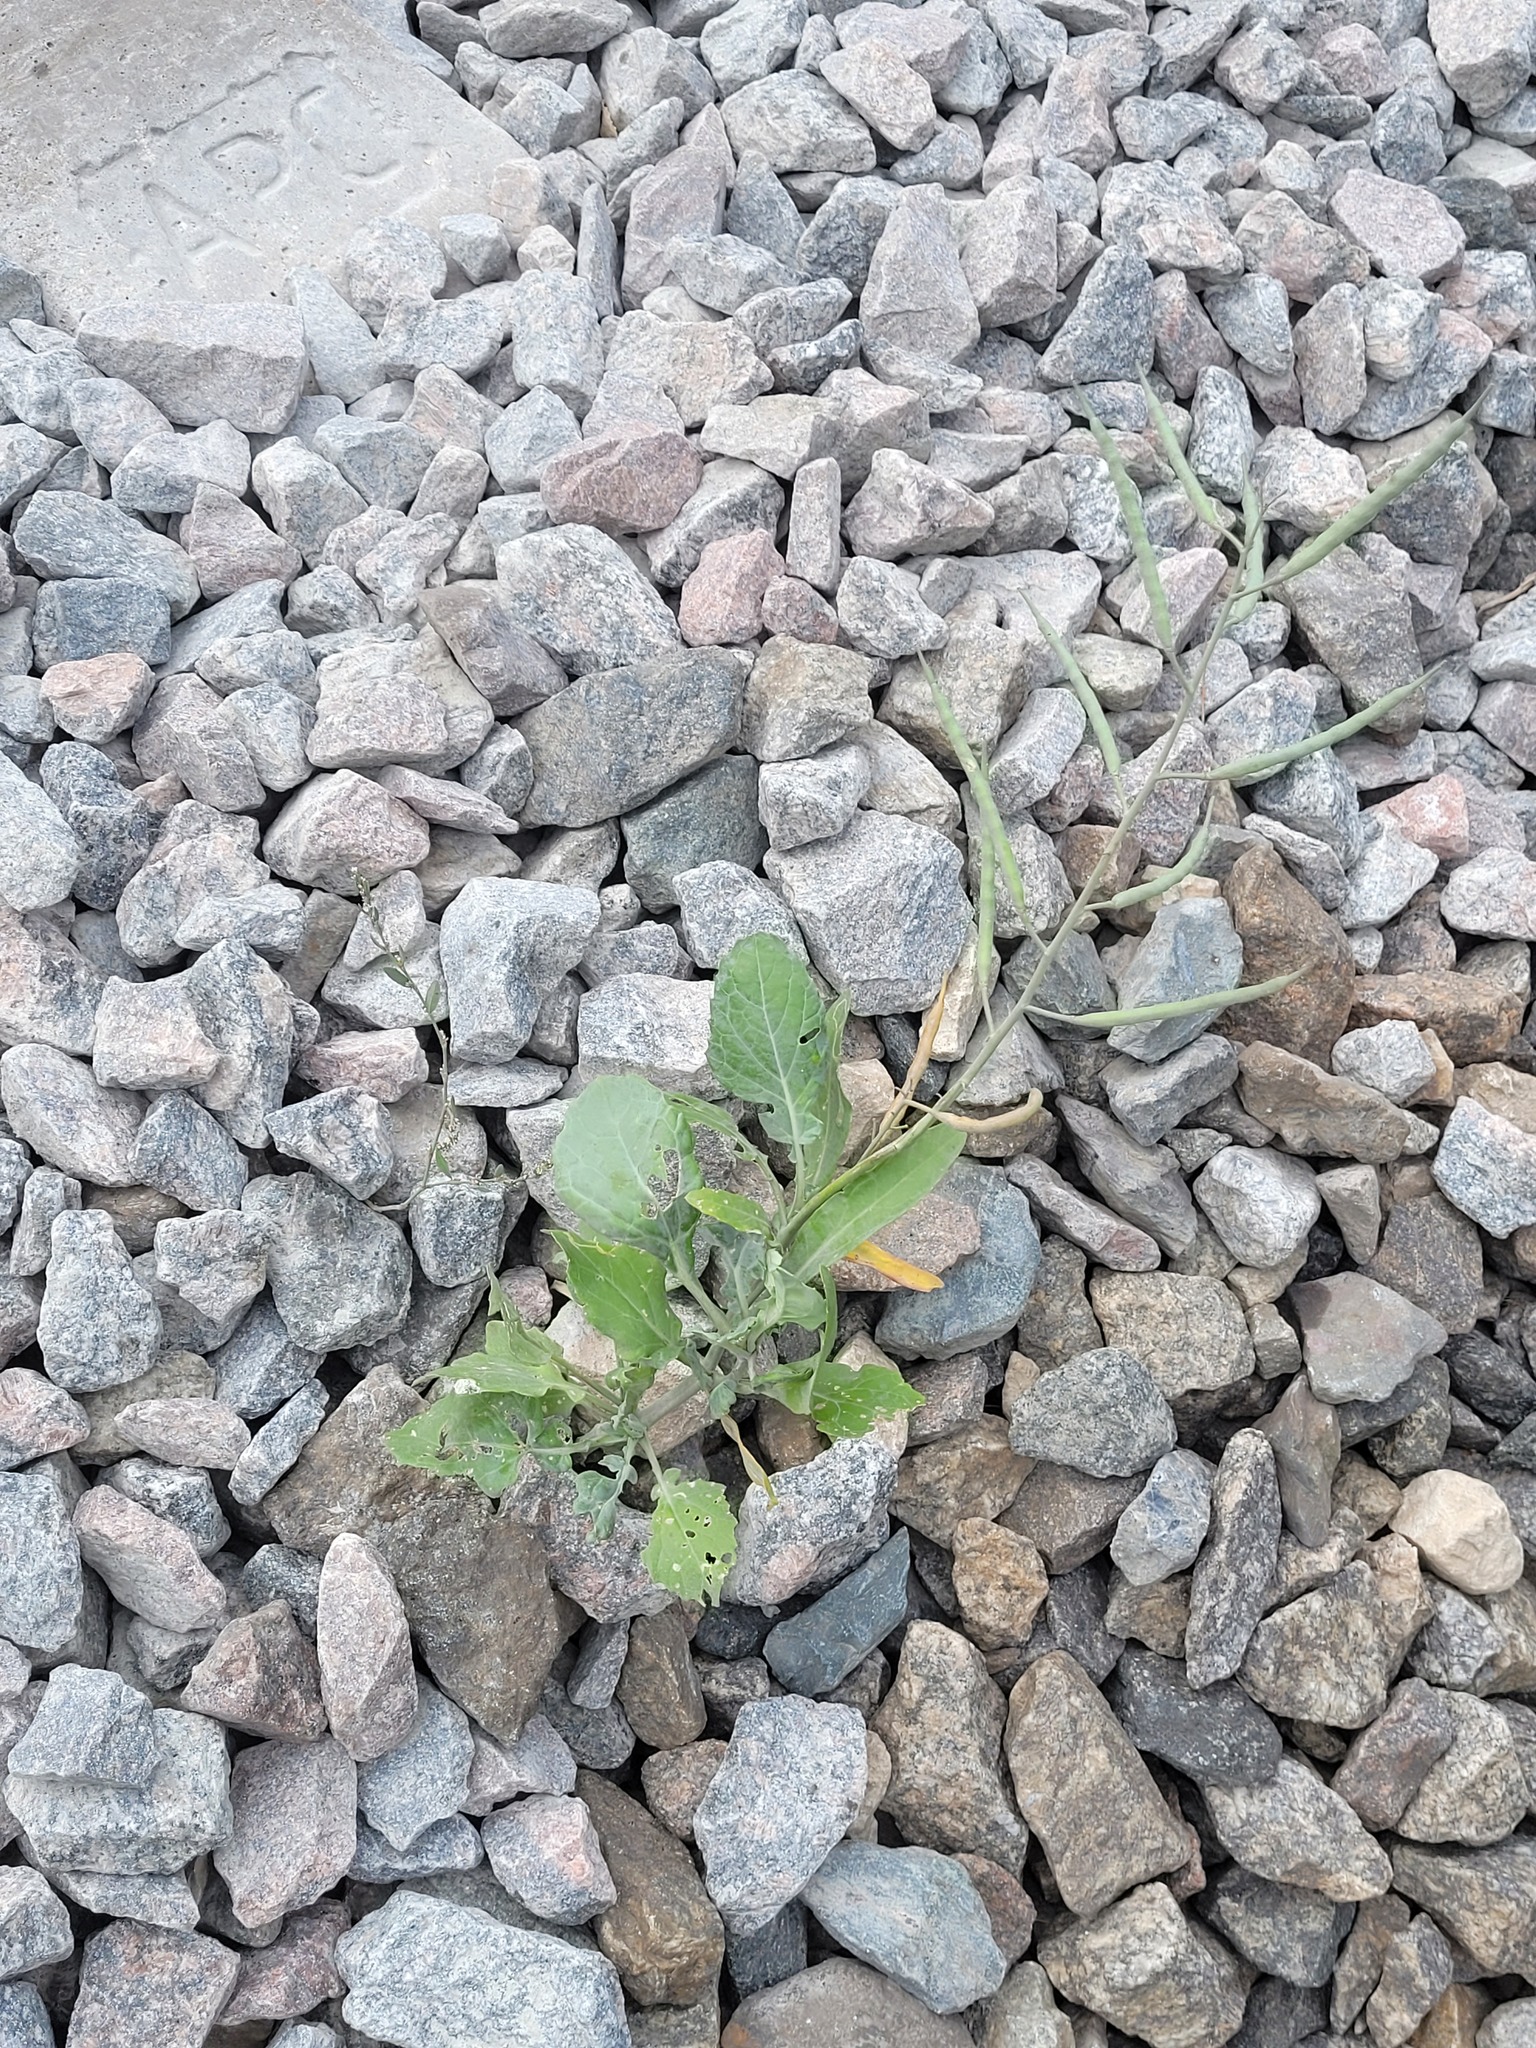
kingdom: Plantae
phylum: Tracheophyta
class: Magnoliopsida
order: Brassicales
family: Brassicaceae
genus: Brassica
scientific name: Brassica napus
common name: Rape
